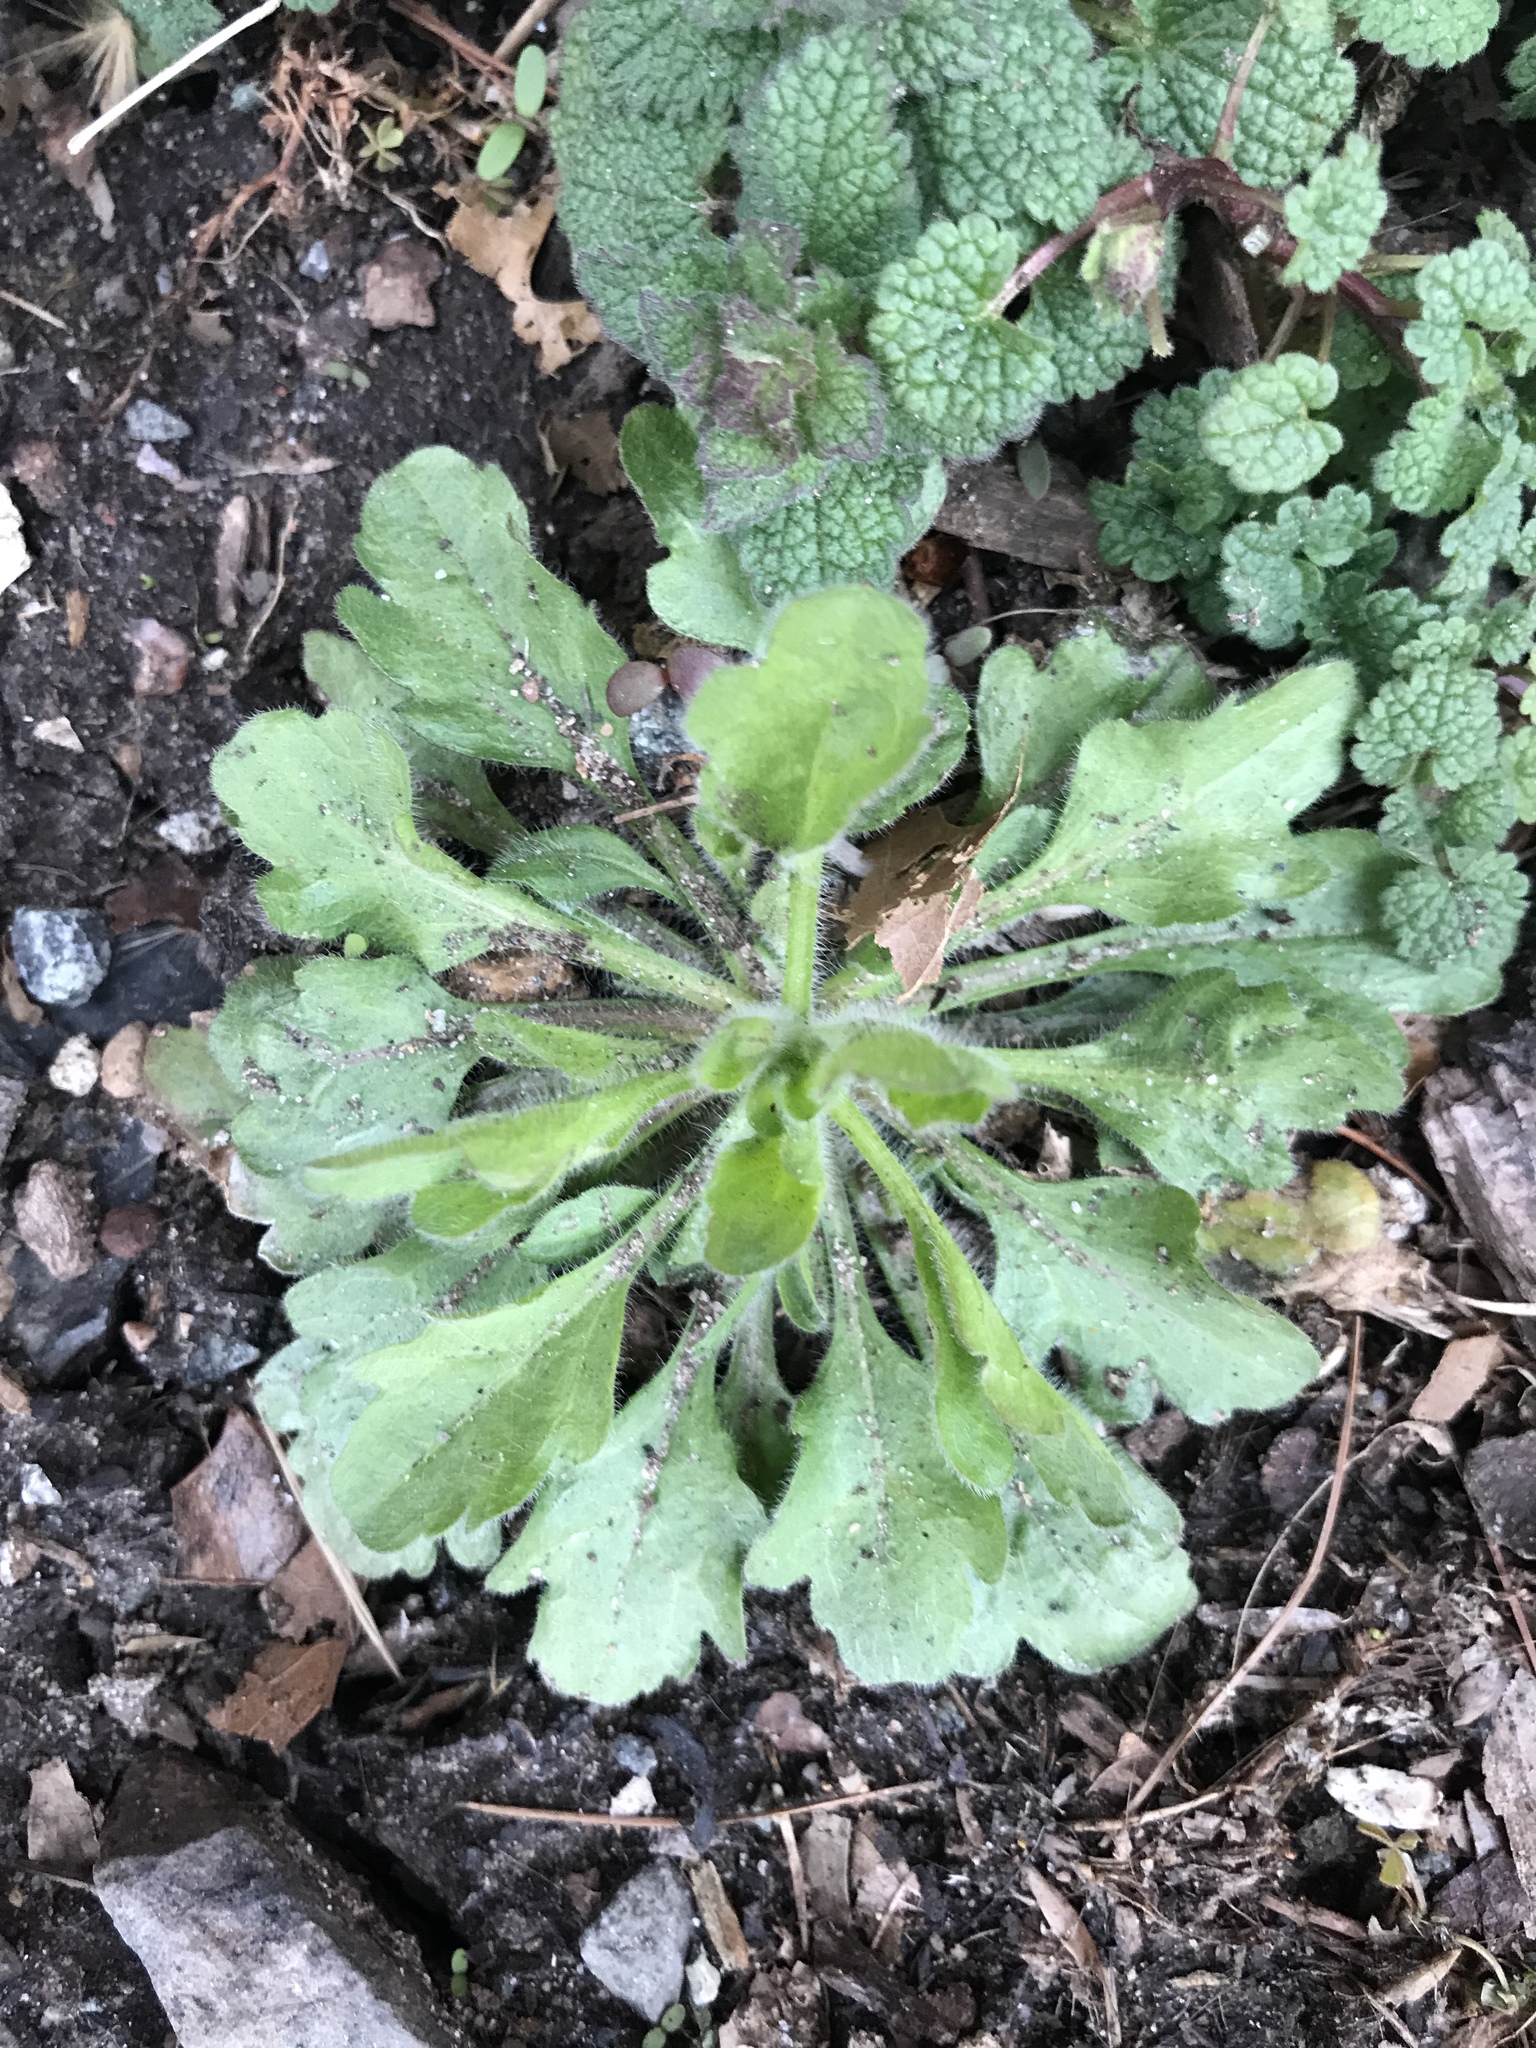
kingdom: Plantae
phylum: Tracheophyta
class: Magnoliopsida
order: Asterales
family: Asteraceae
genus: Erigeron
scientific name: Erigeron canadensis
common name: Canadian fleabane
